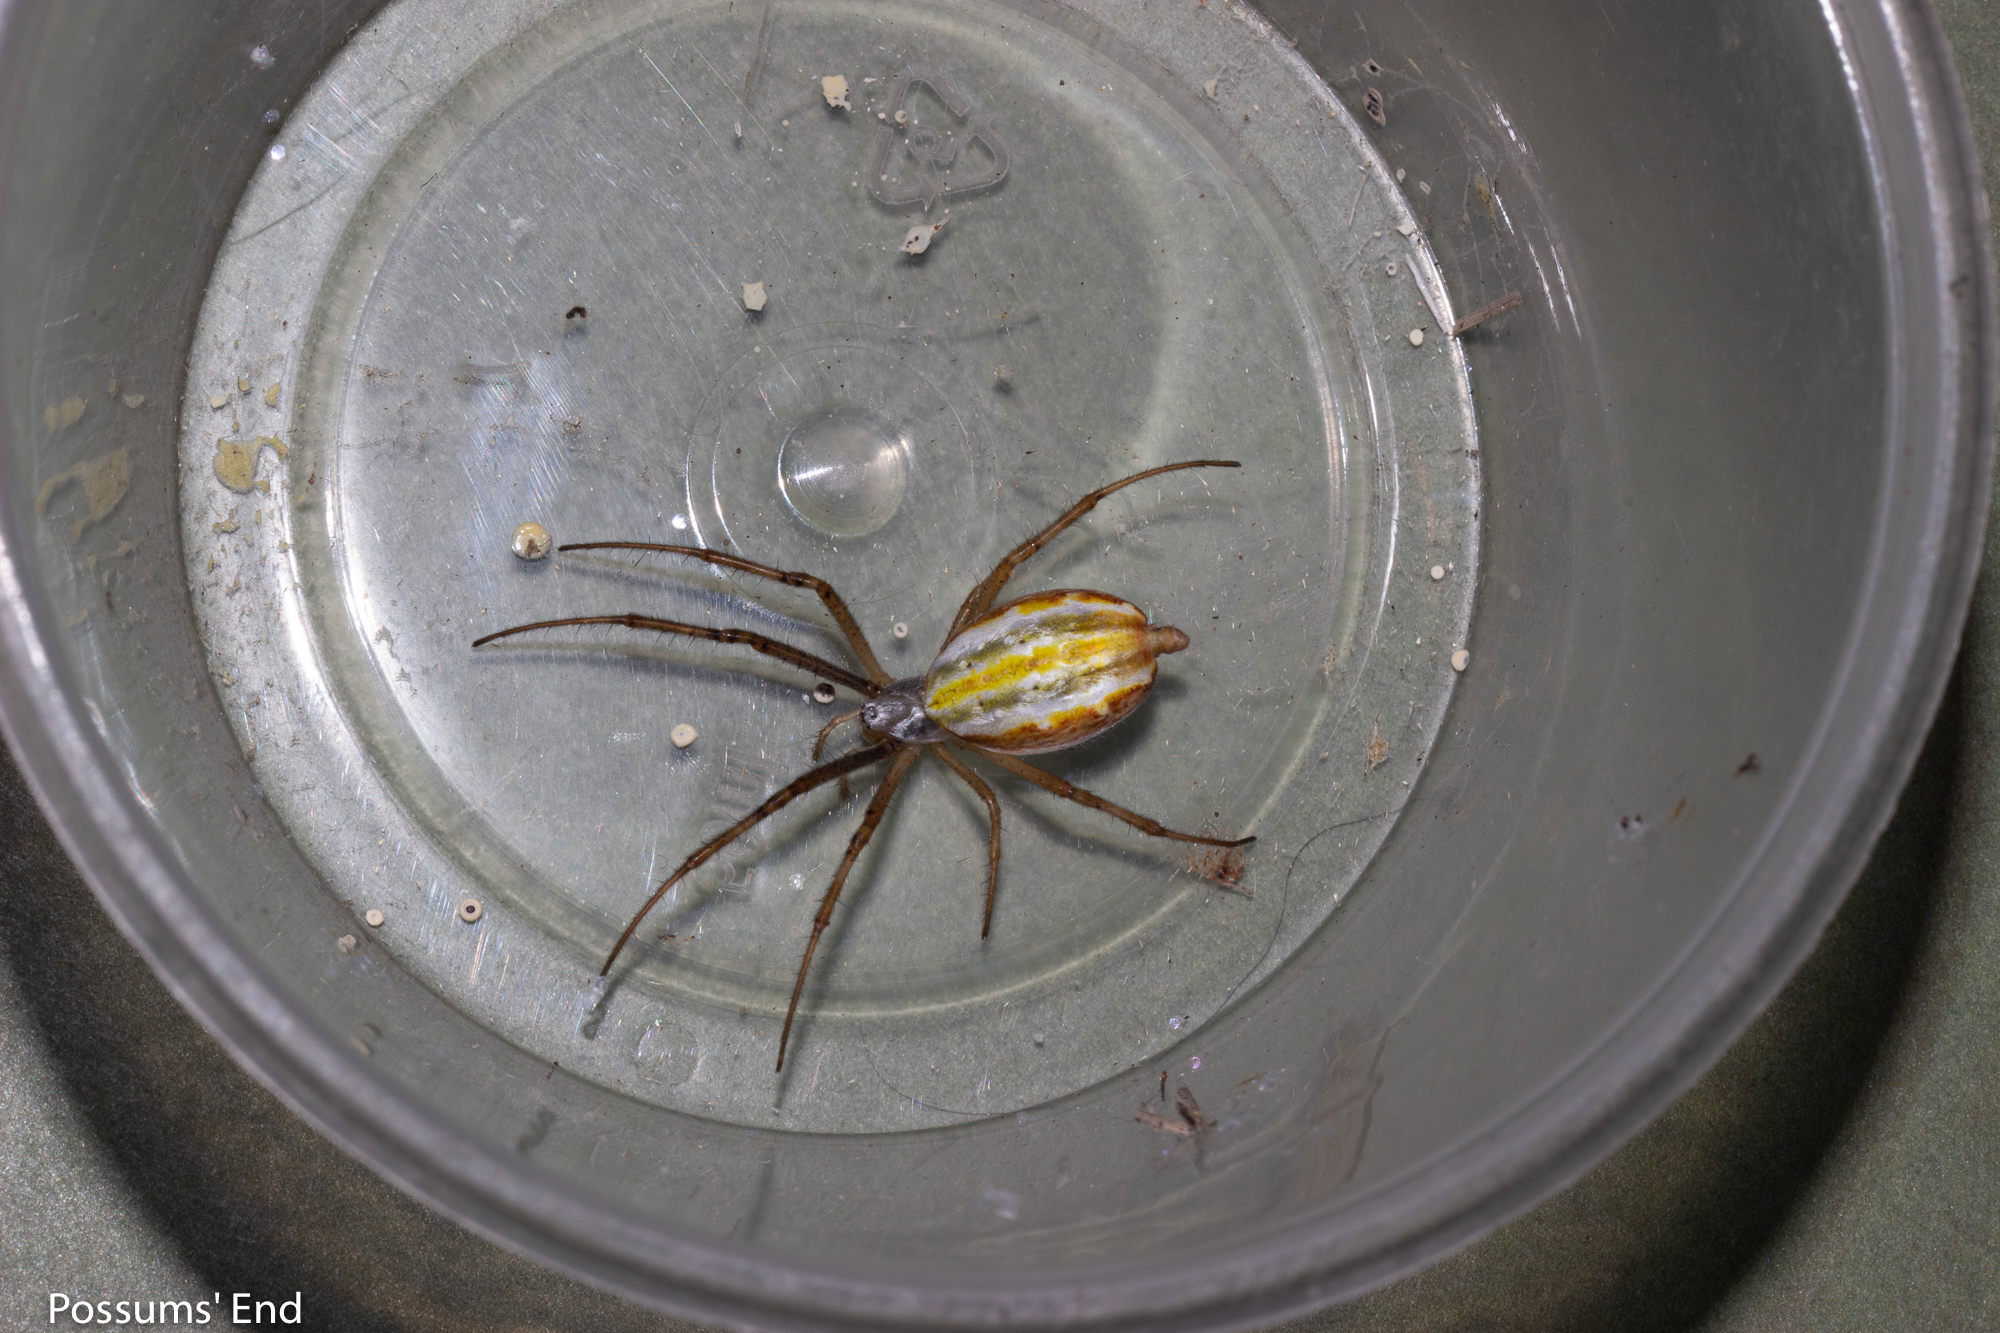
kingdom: Animalia
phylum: Arthropoda
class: Arachnida
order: Araneae
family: Araneidae
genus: Argiope
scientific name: Argiope protensa
